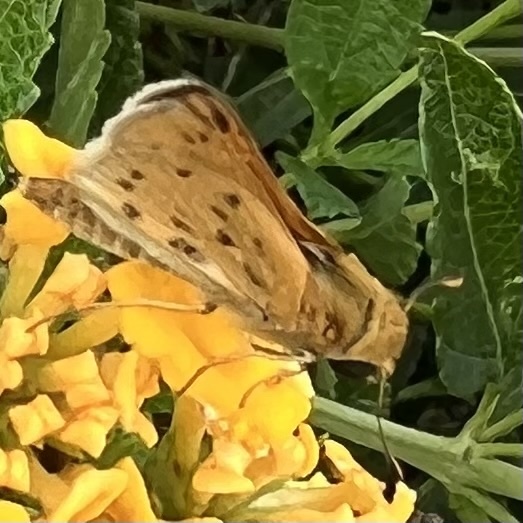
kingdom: Animalia
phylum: Arthropoda
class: Insecta
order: Lepidoptera
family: Hesperiidae
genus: Hylephila
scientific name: Hylephila phyleus
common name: Fiery skipper
